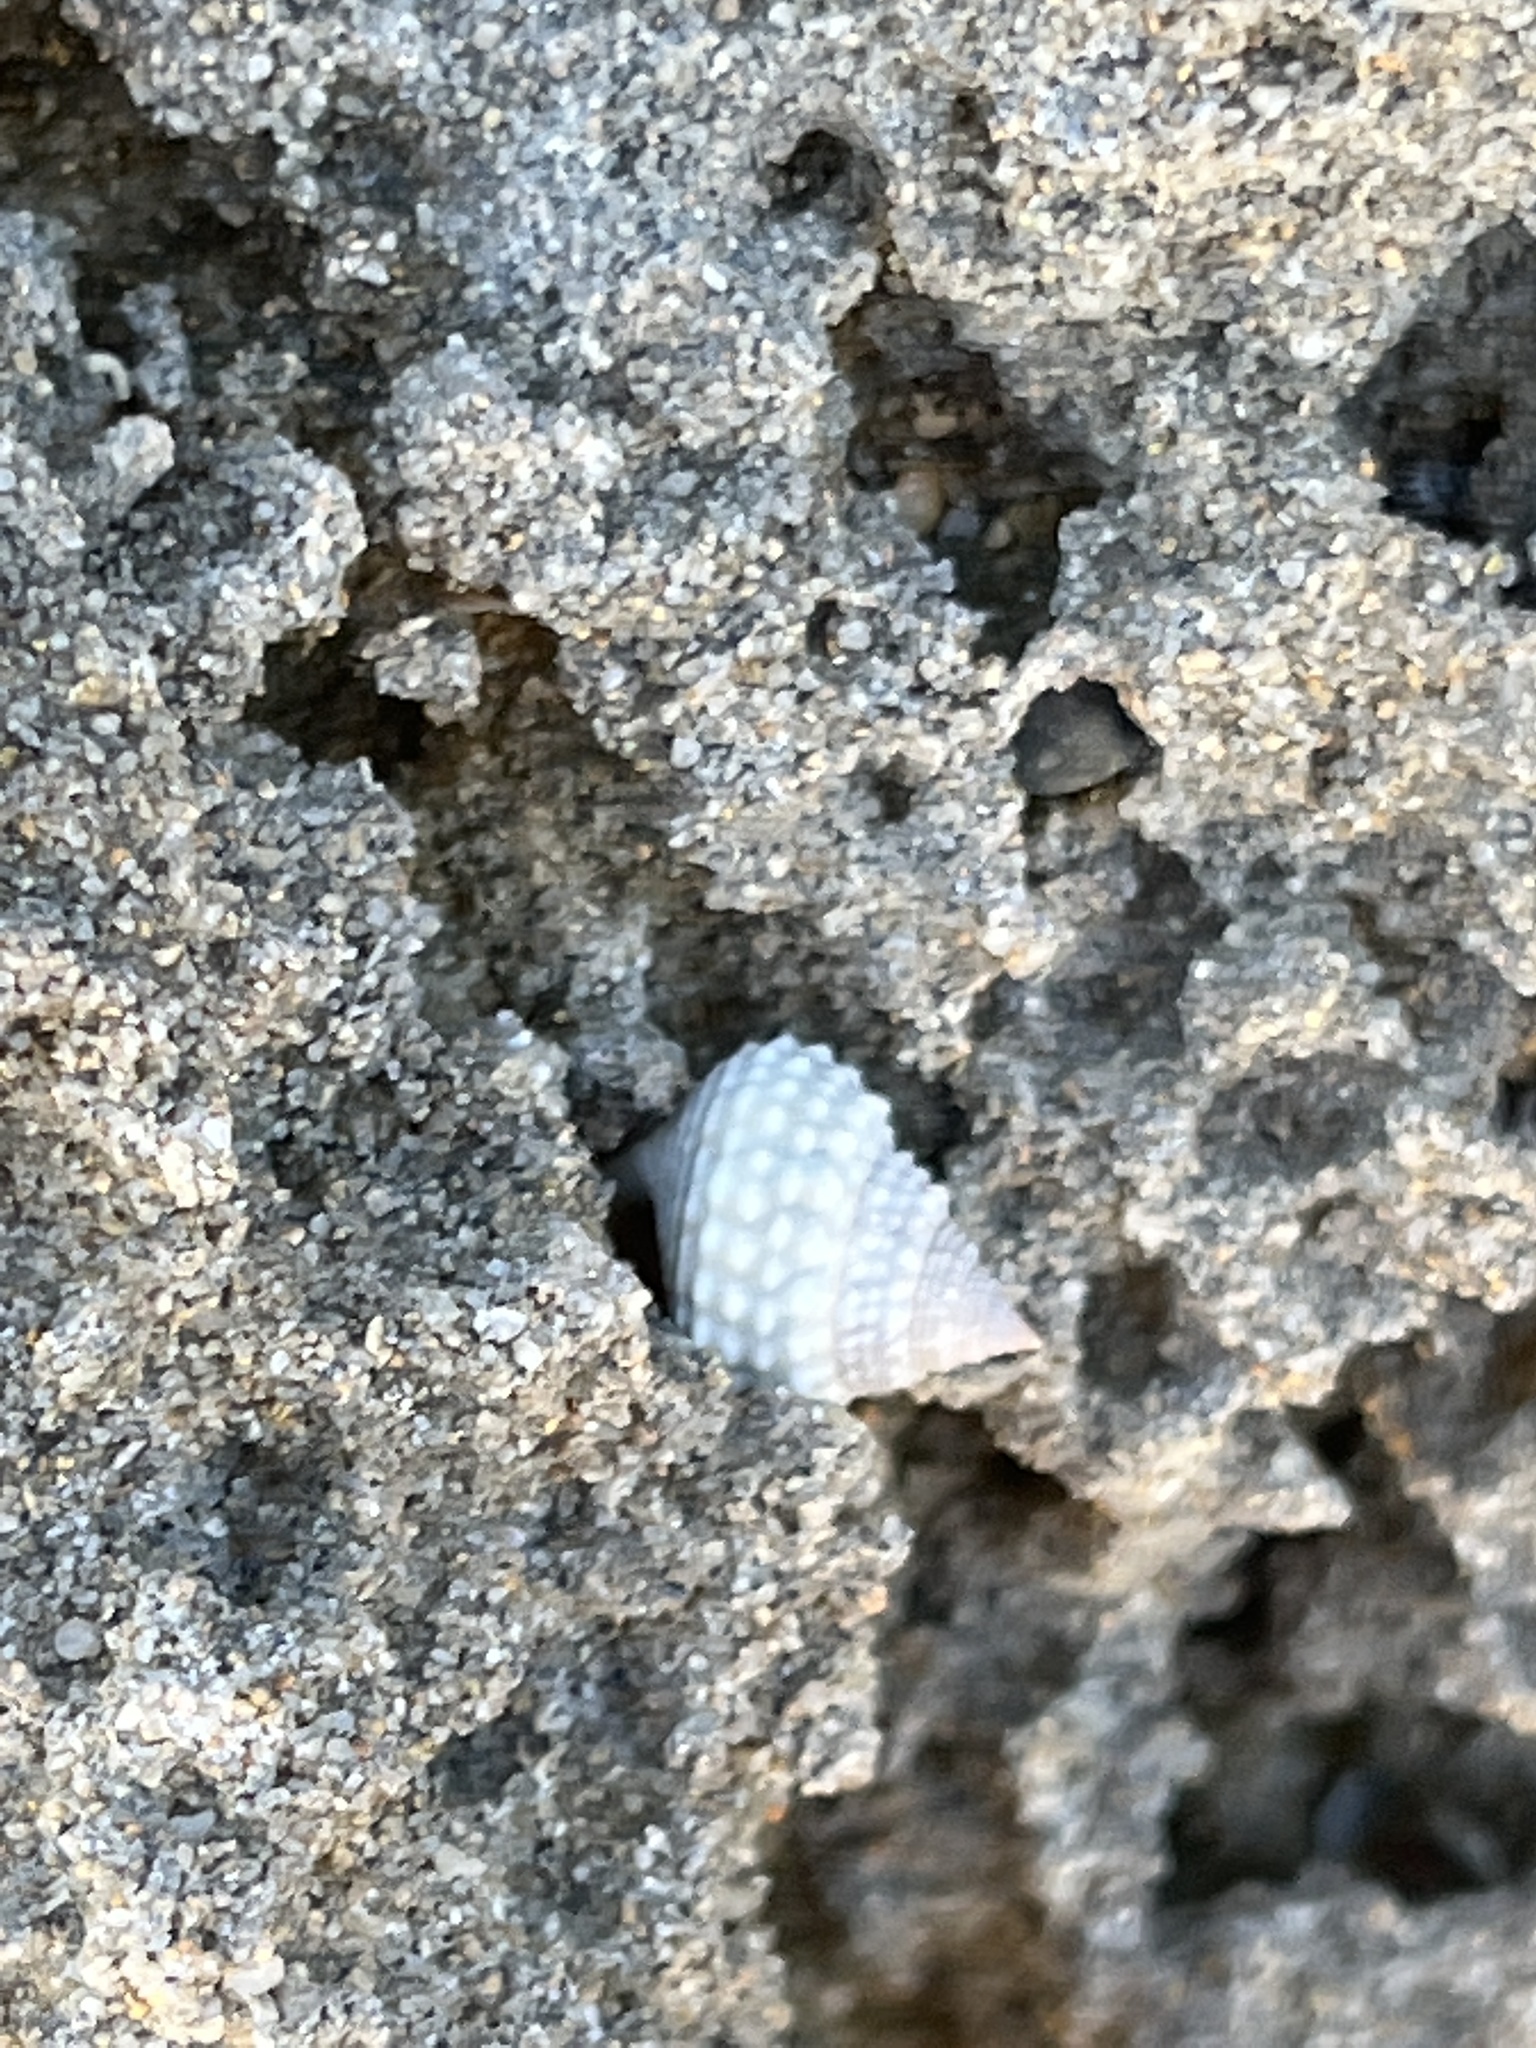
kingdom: Animalia
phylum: Mollusca
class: Gastropoda
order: Littorinimorpha
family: Littorinidae
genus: Cenchritis
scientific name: Cenchritis muricatus
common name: Beaded periwinkle
